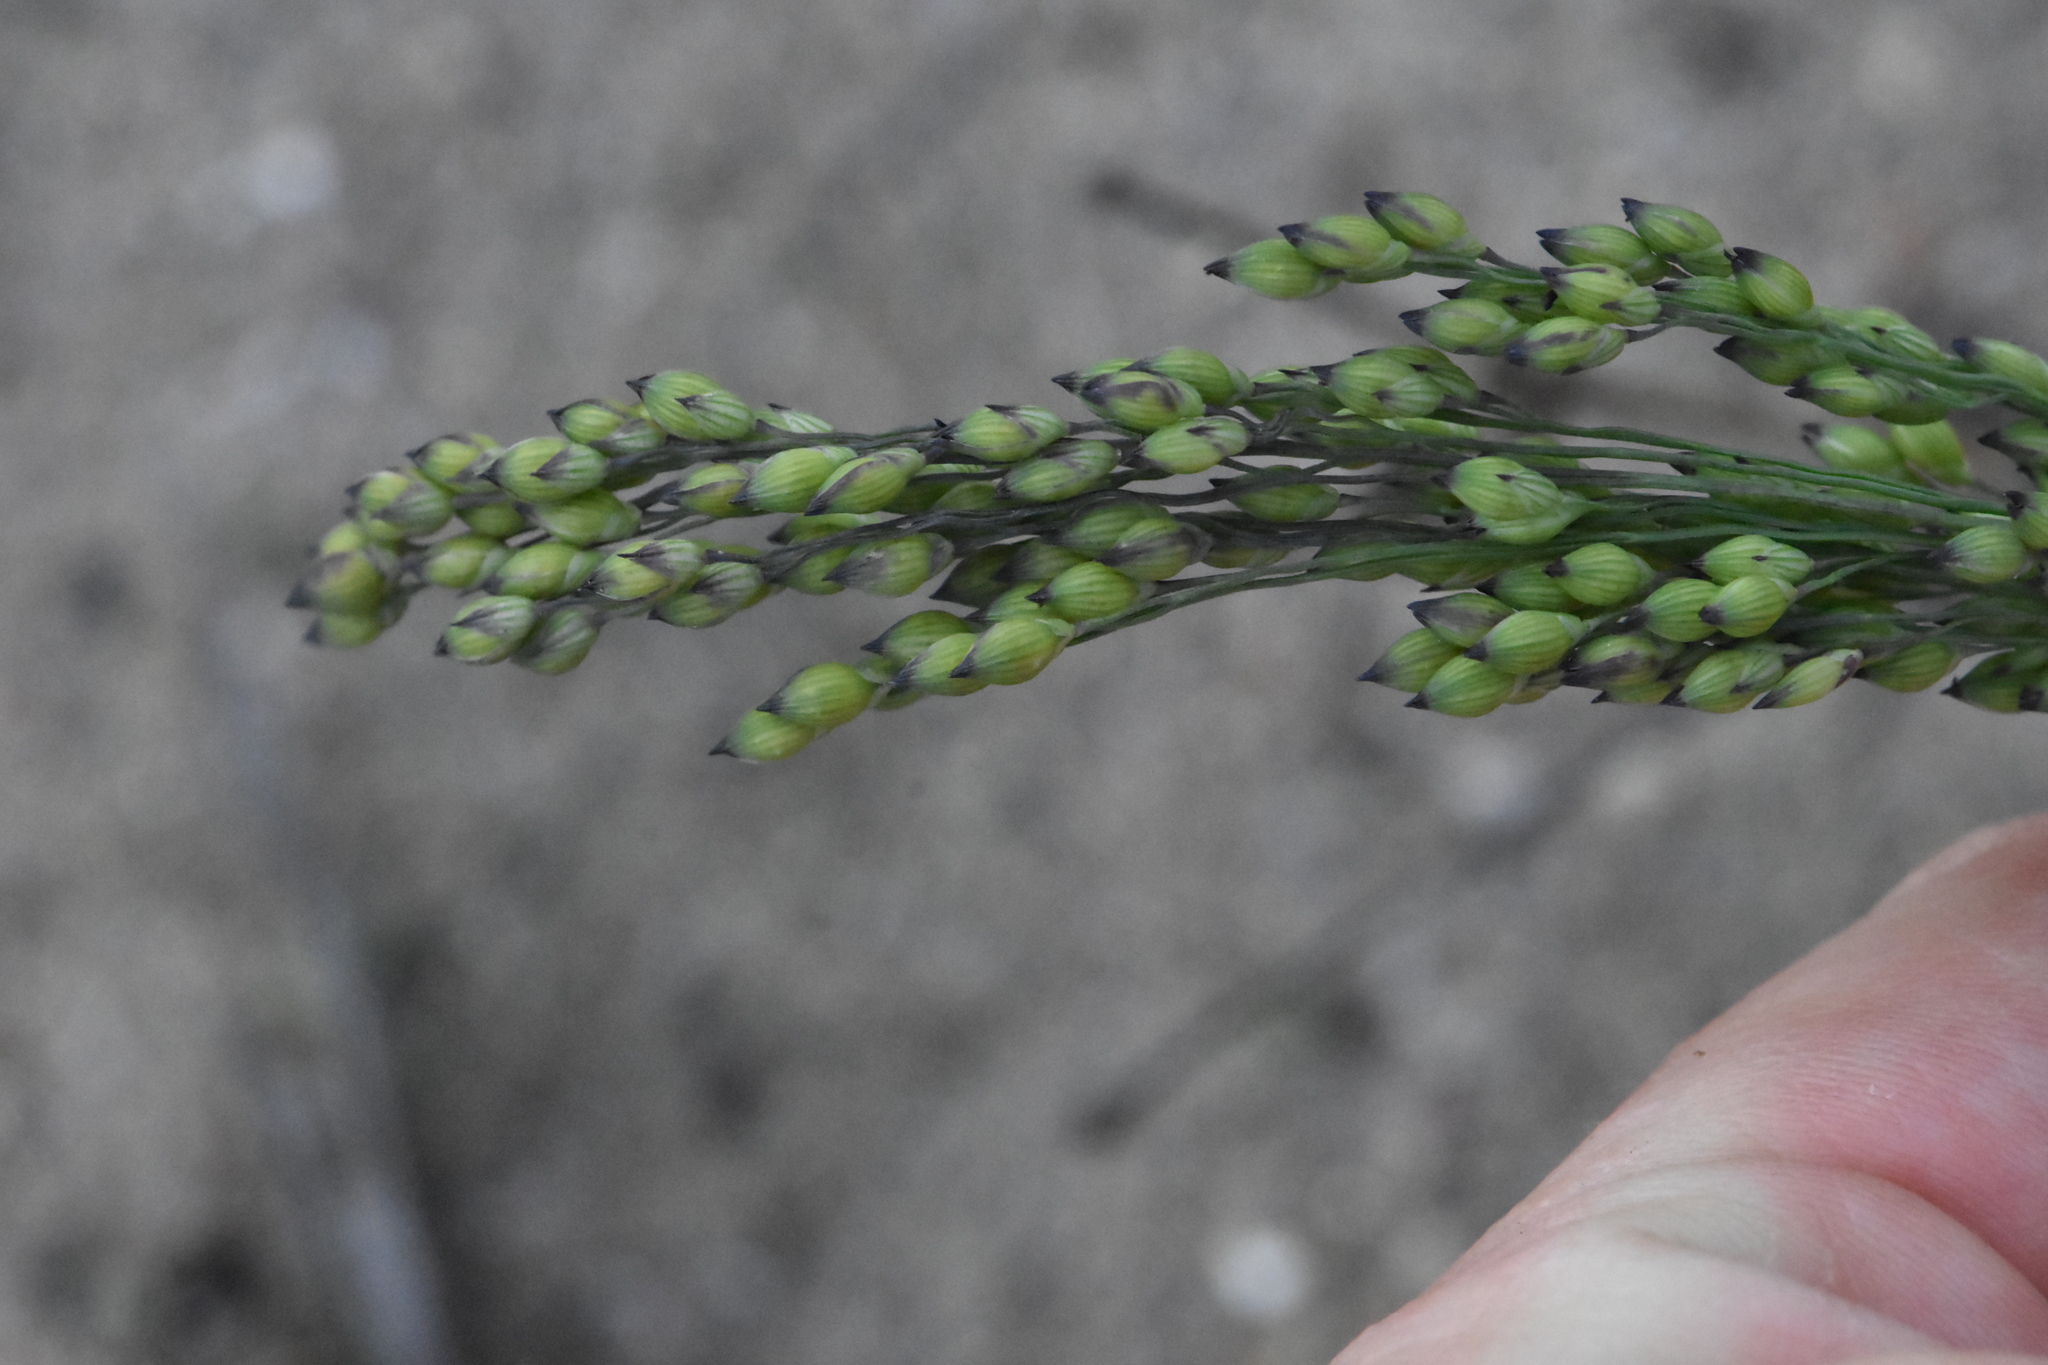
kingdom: Plantae
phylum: Tracheophyta
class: Liliopsida
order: Poales
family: Poaceae
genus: Panicum
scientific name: Panicum miliaceum
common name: Common millet
